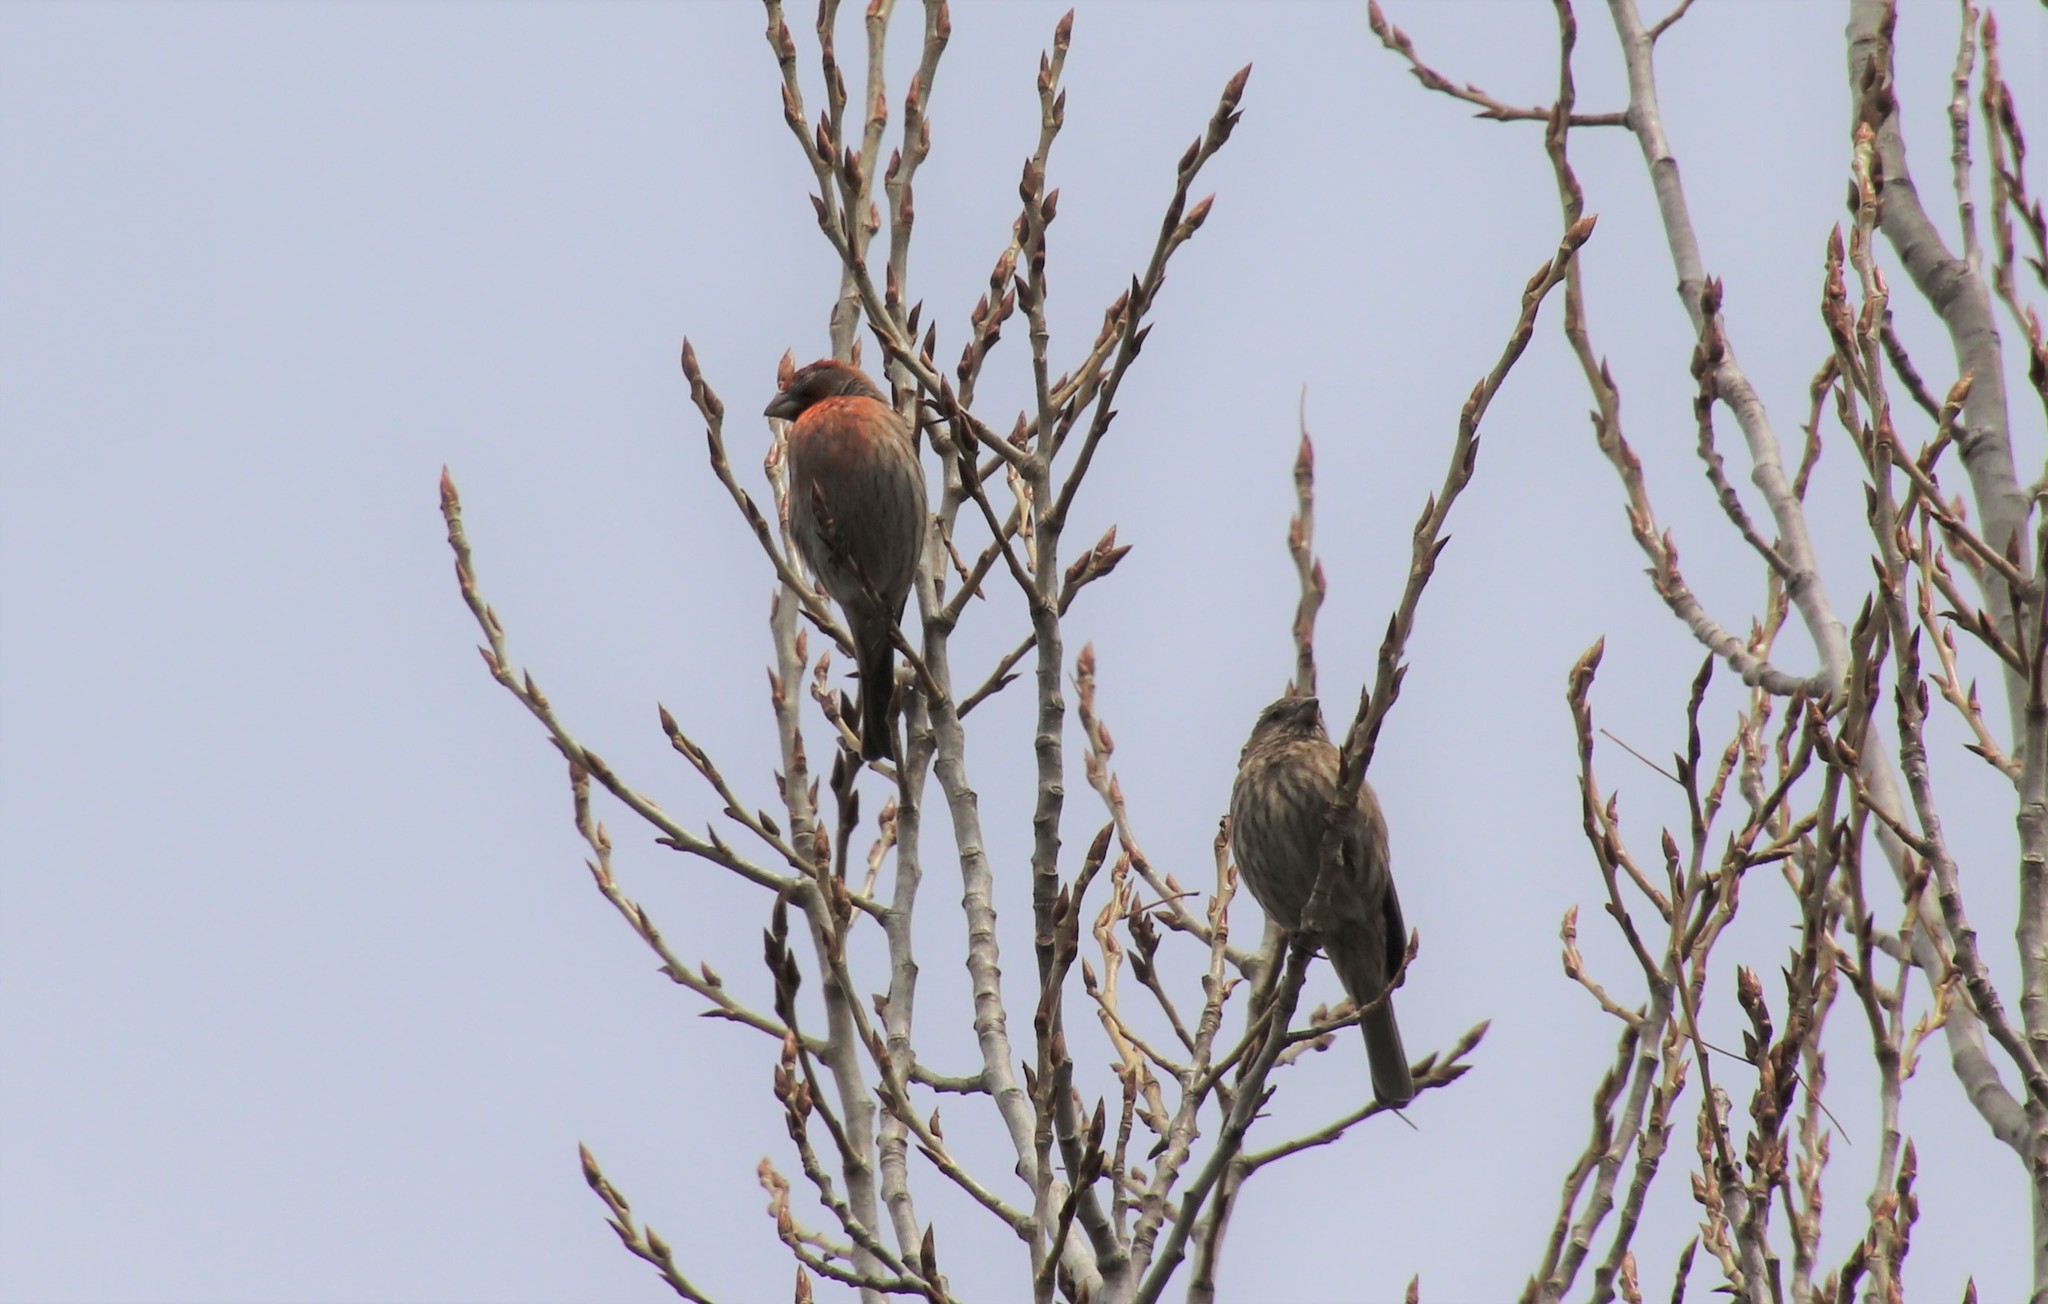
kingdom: Animalia
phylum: Chordata
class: Aves
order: Passeriformes
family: Fringillidae
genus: Haemorhous
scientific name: Haemorhous mexicanus
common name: House finch
